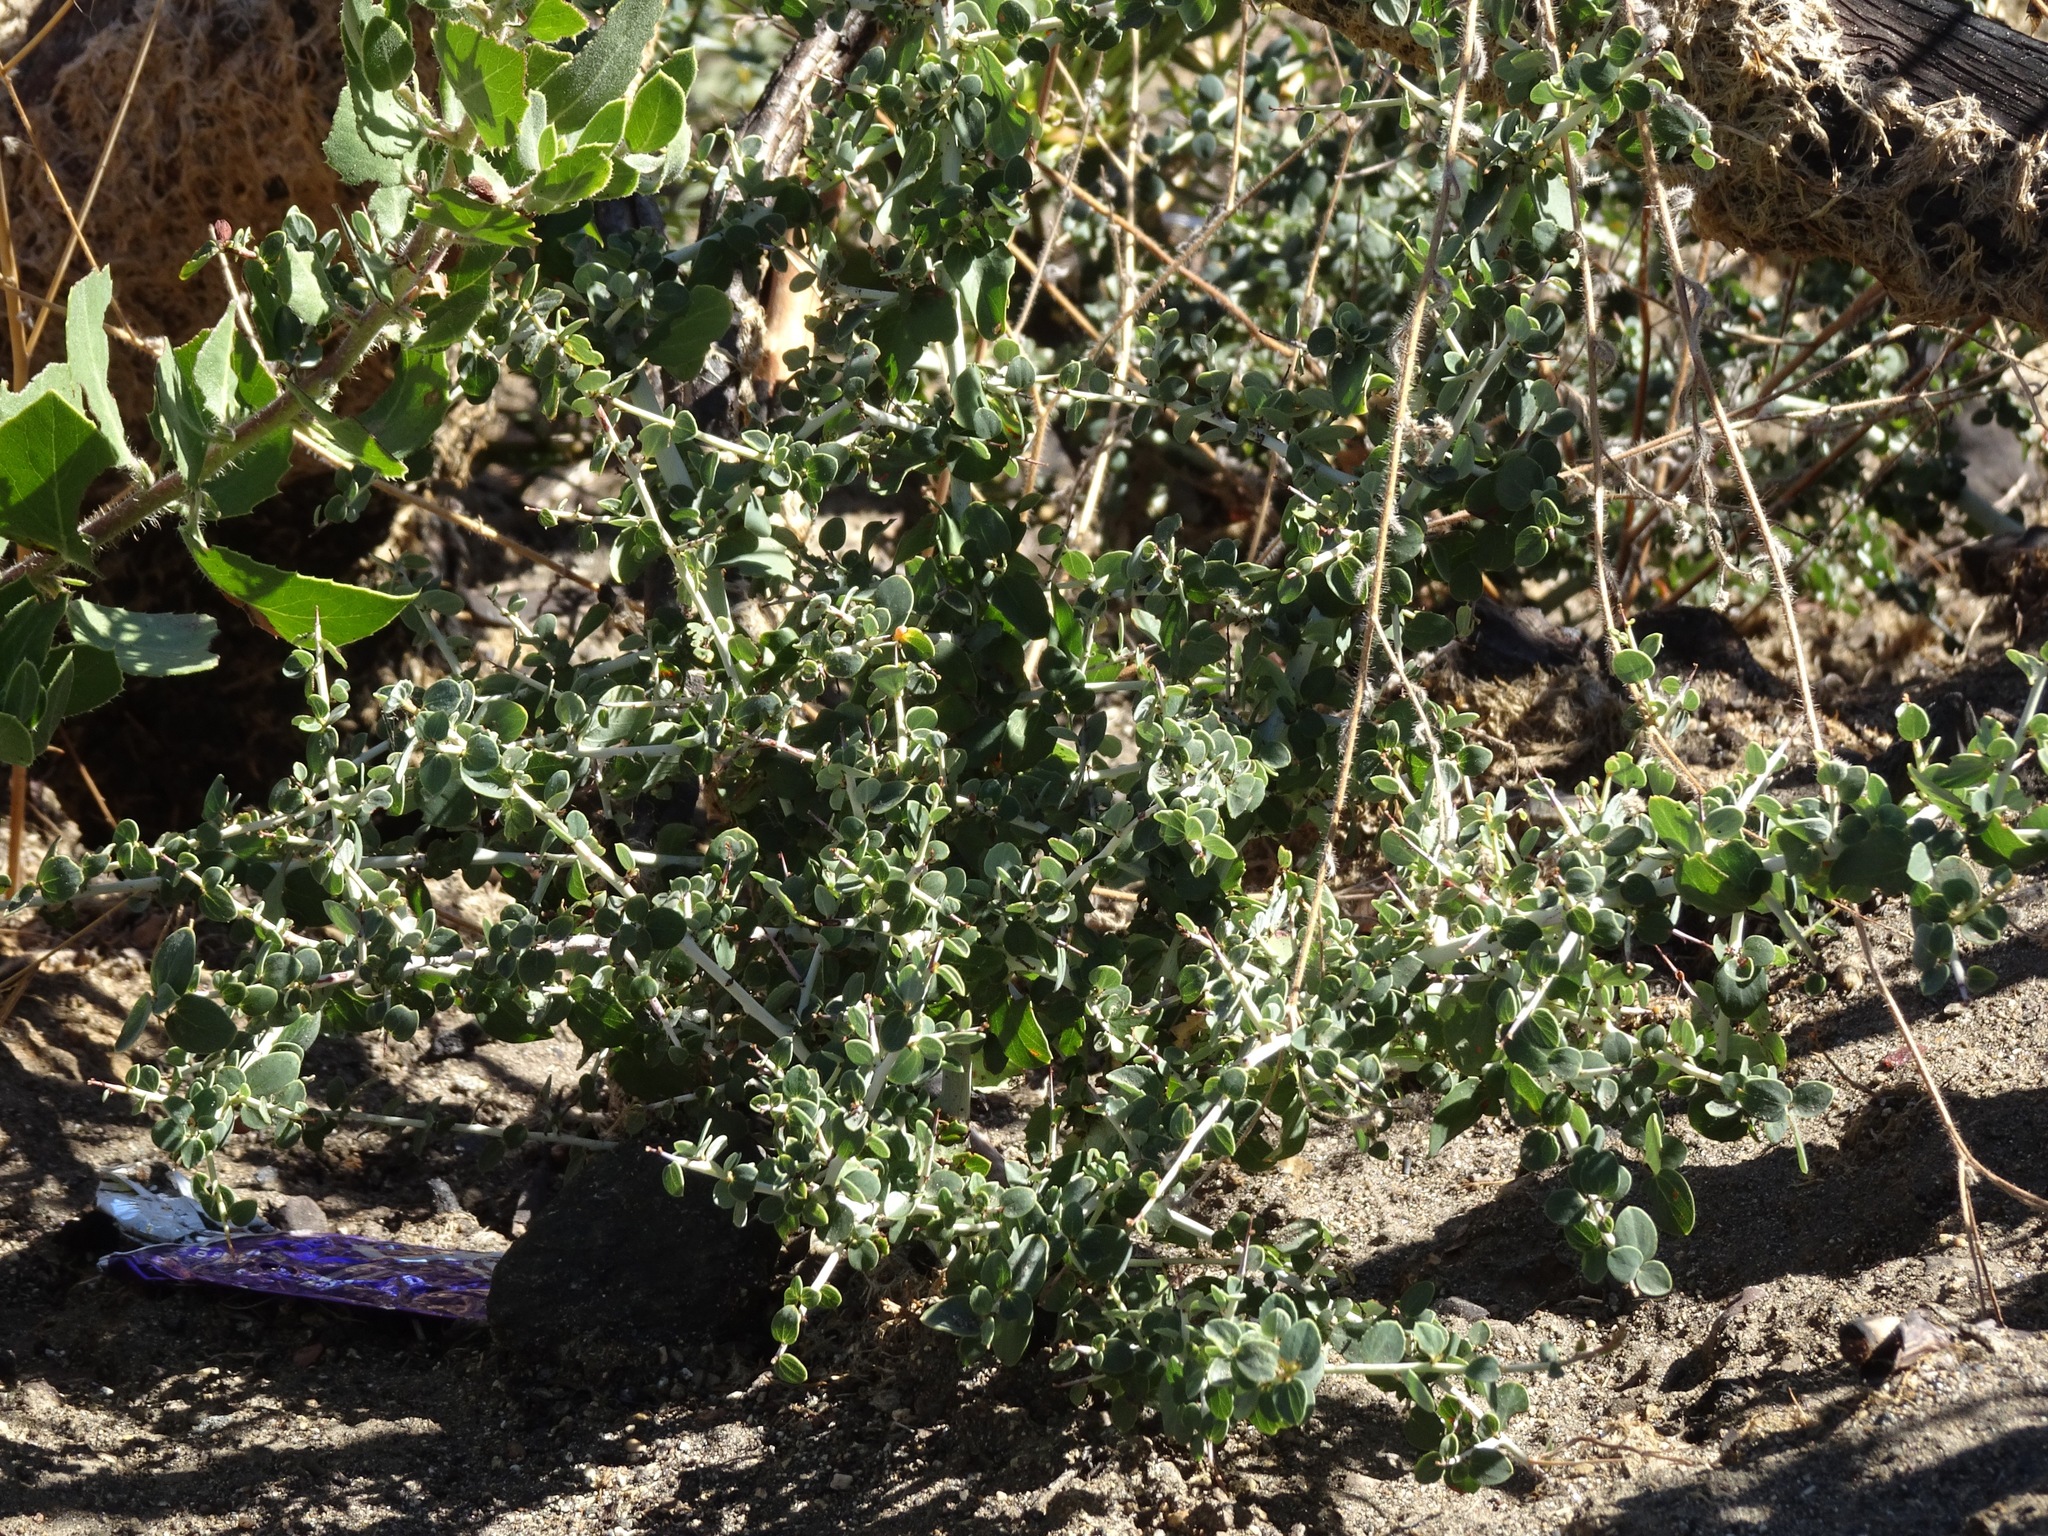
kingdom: Plantae
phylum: Tracheophyta
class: Magnoliopsida
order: Rosales
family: Rhamnaceae
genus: Ceanothus
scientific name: Ceanothus leucodermis
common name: Chaparral whitethorn
